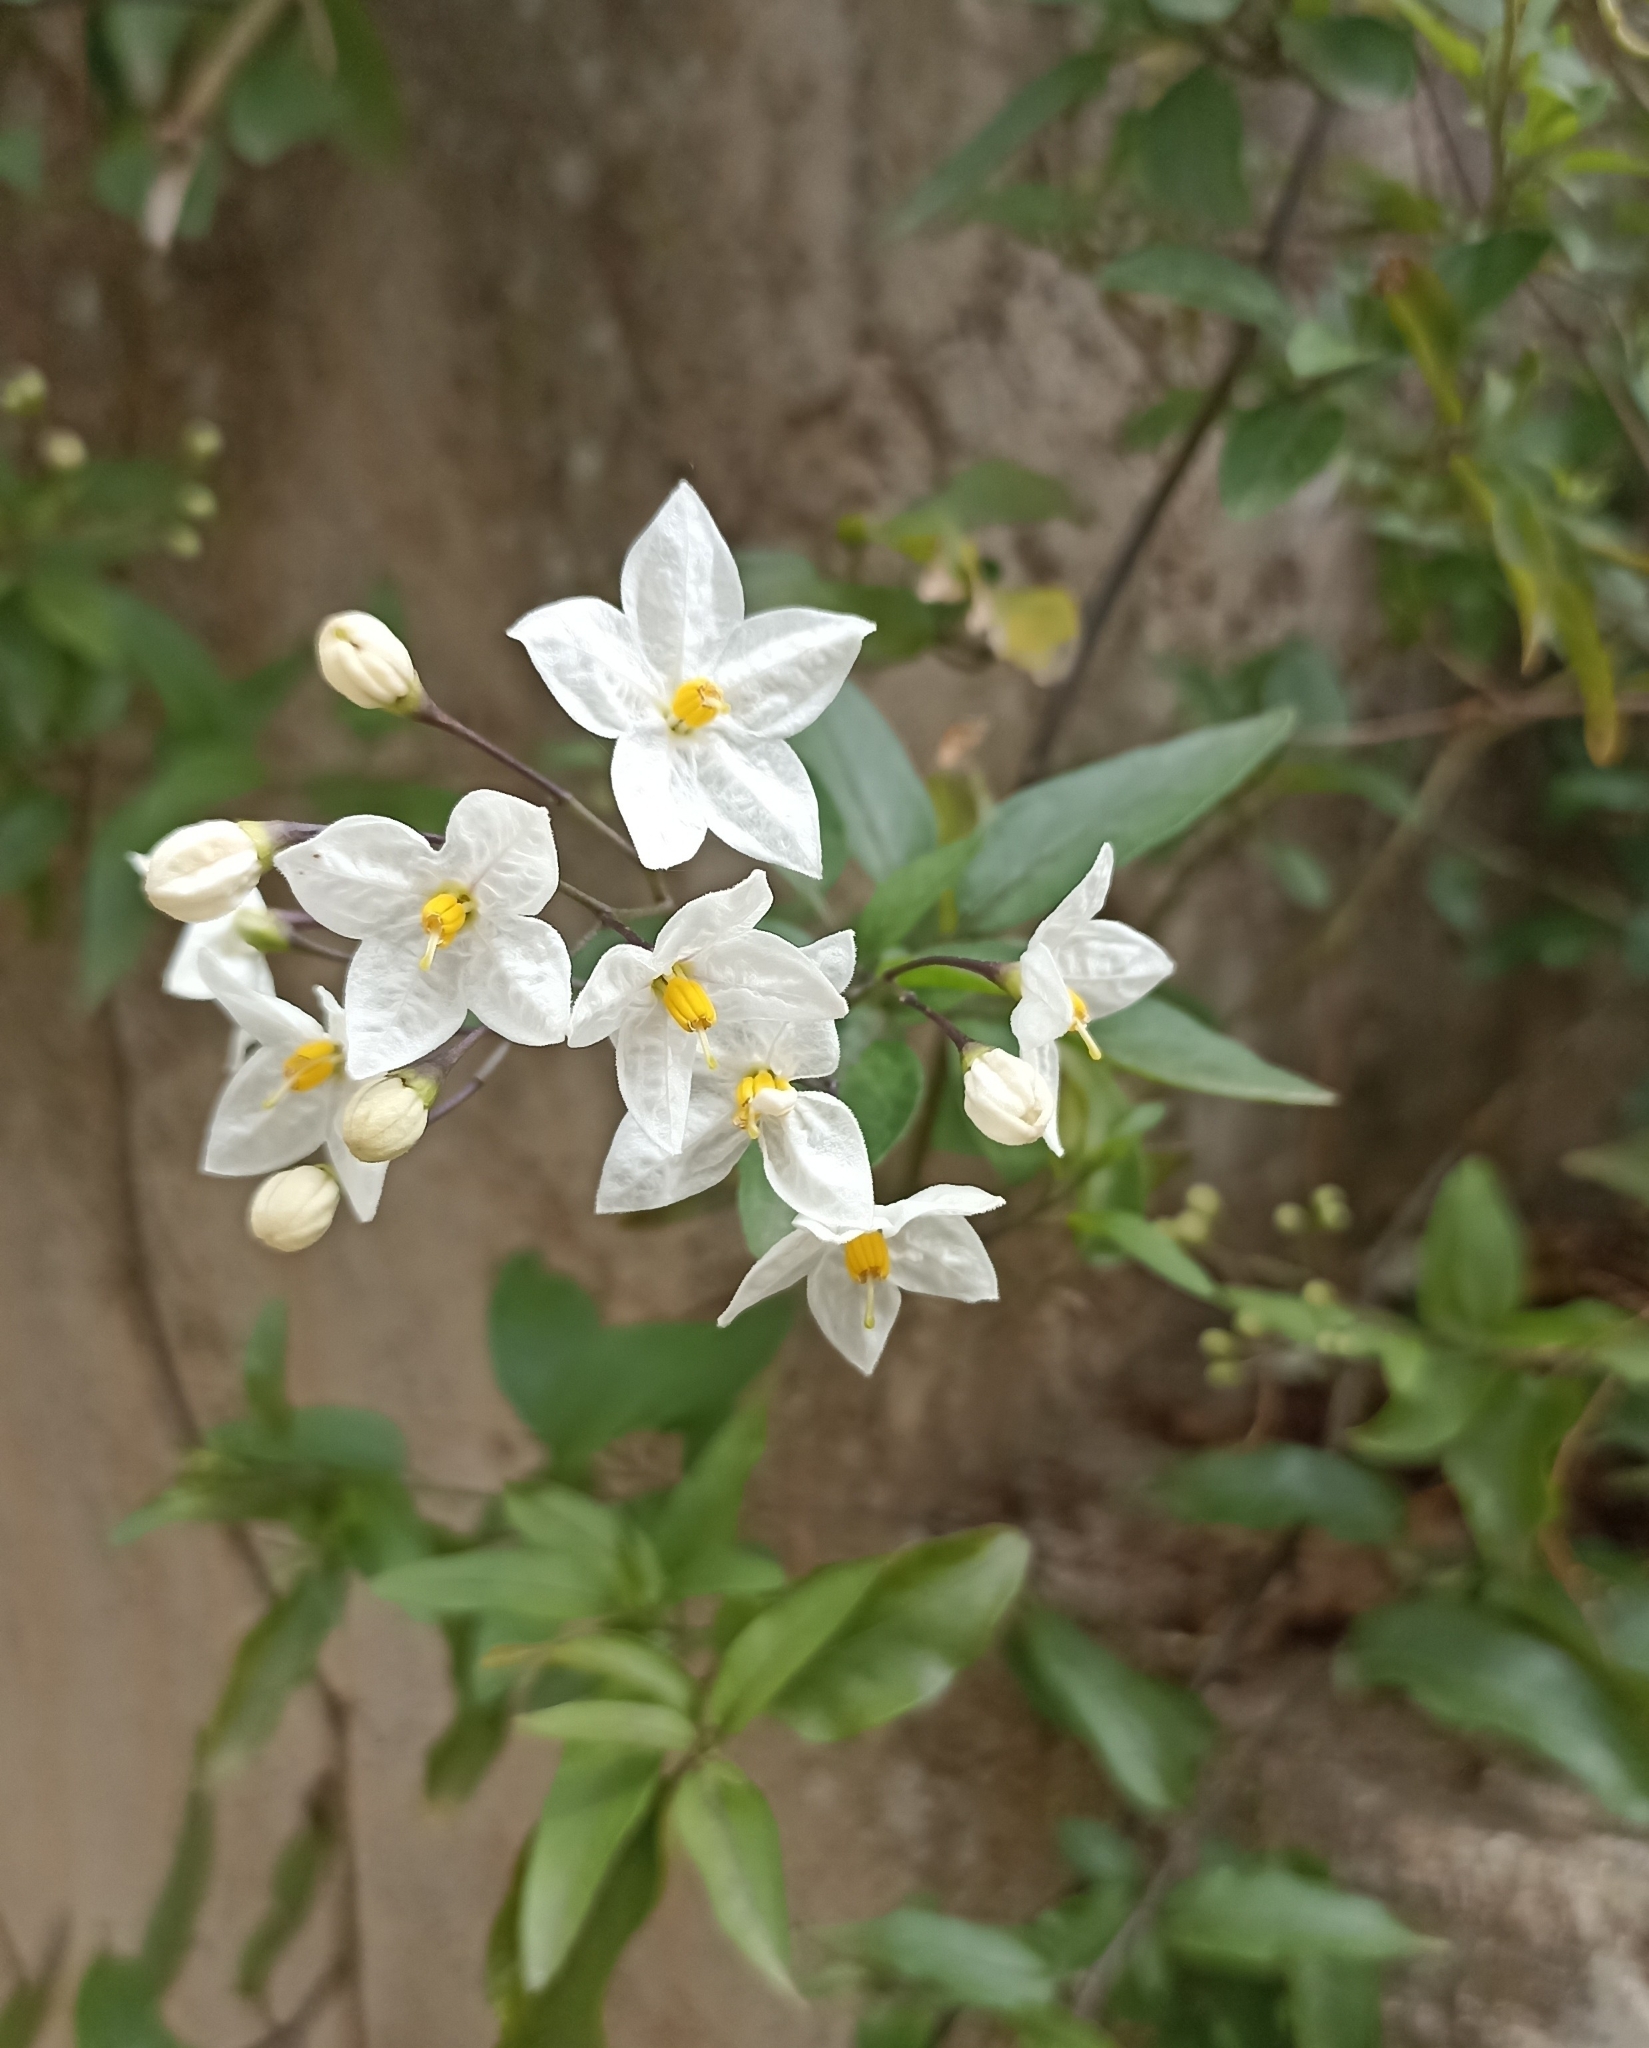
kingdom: Plantae
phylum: Tracheophyta
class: Magnoliopsida
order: Solanales
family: Solanaceae
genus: Solanum
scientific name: Solanum laxum
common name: Nightshade
